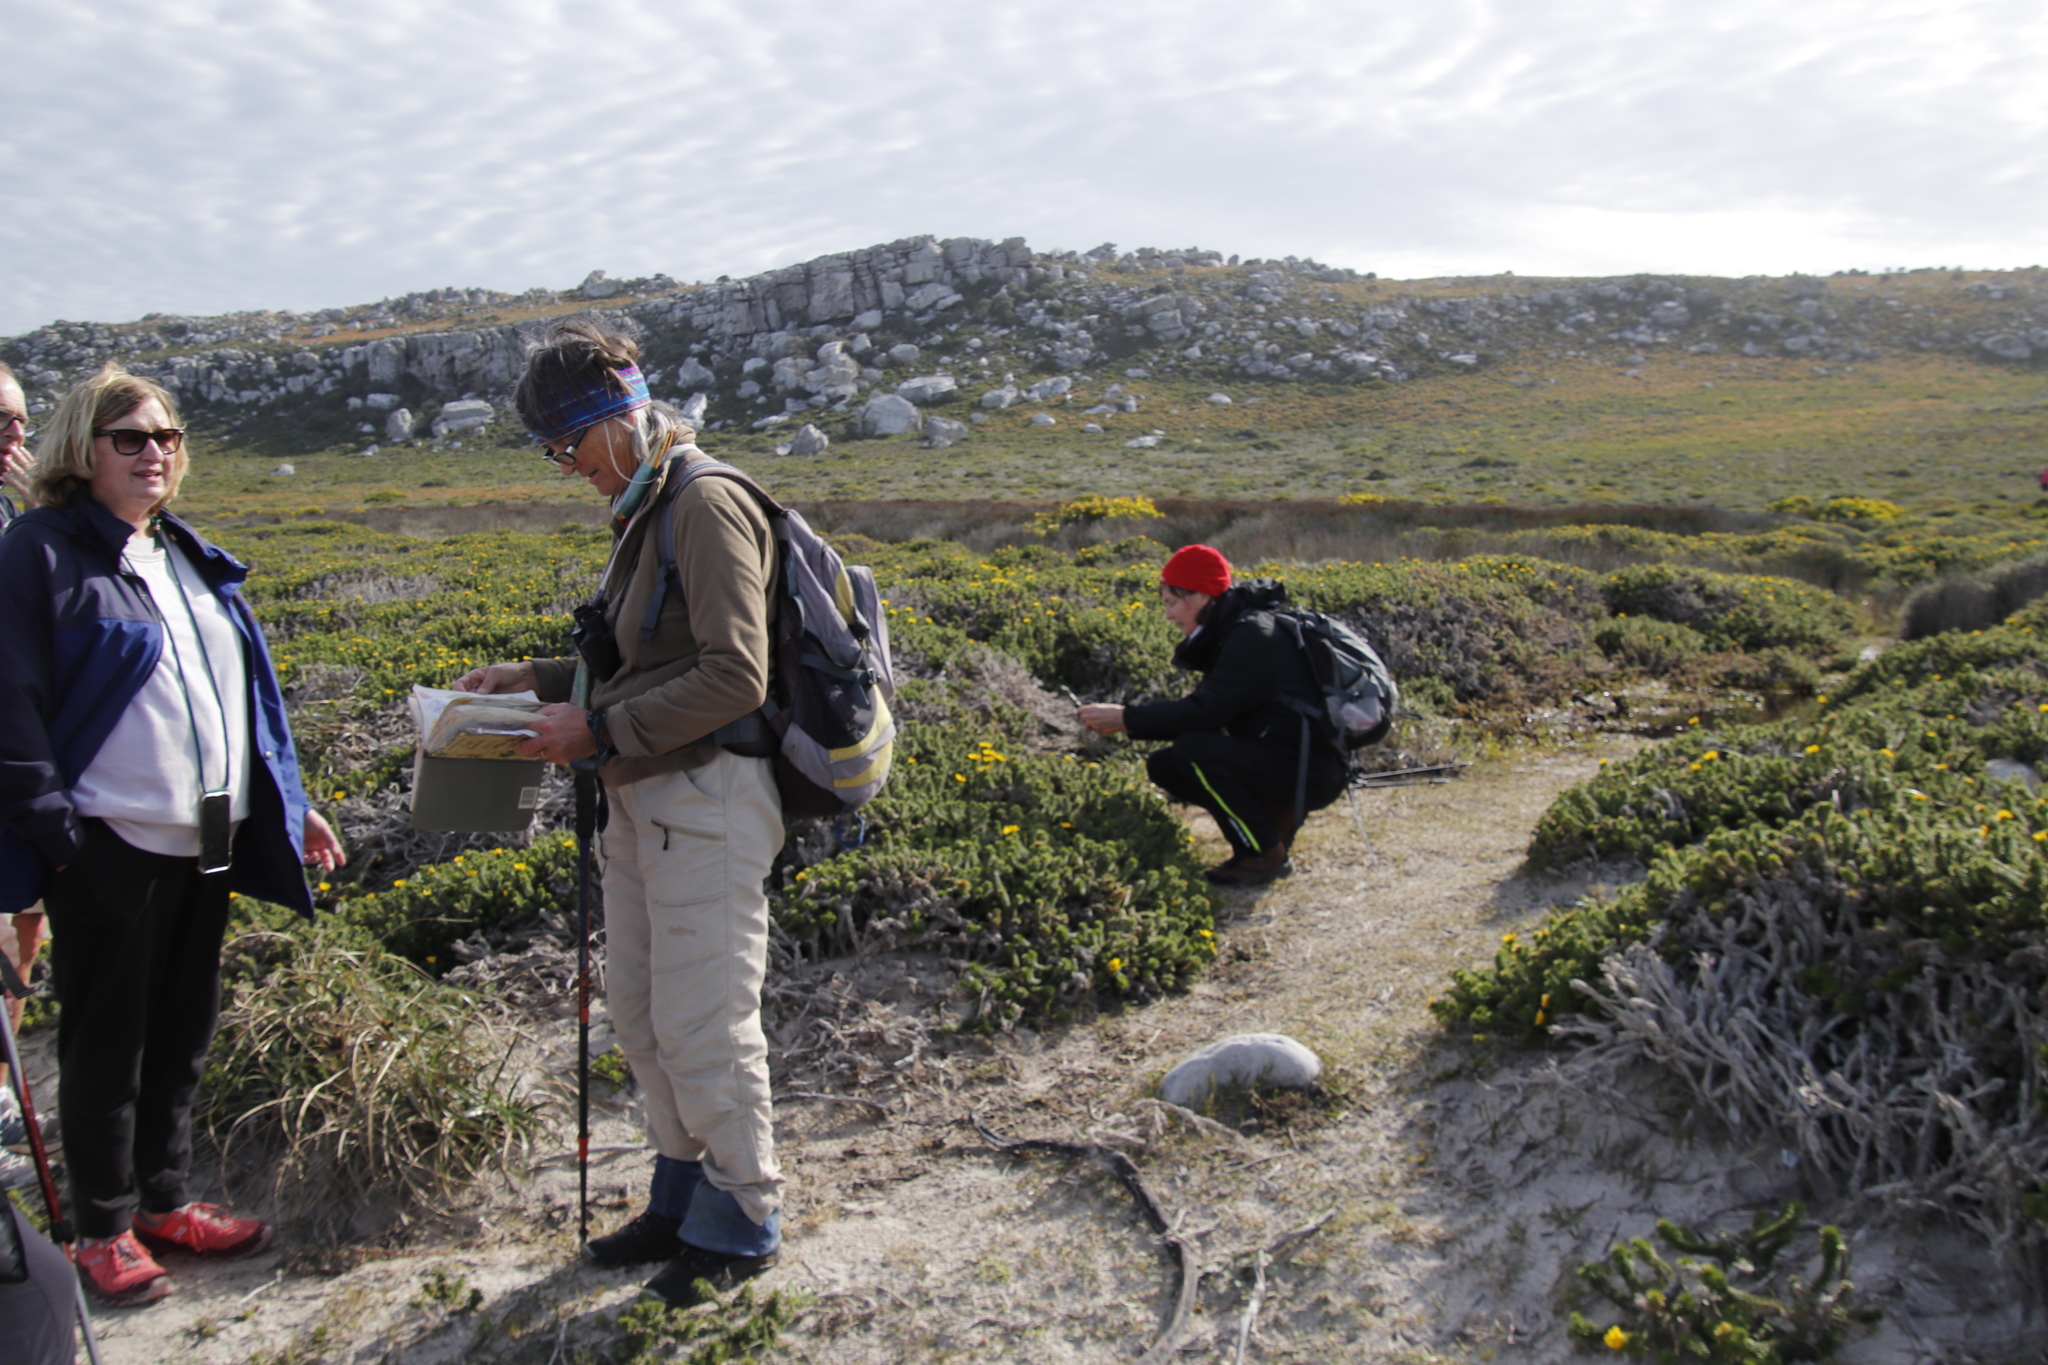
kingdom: Plantae
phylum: Tracheophyta
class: Magnoliopsida
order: Asterales
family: Asteraceae
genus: Cullumia
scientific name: Cullumia squarrosa
